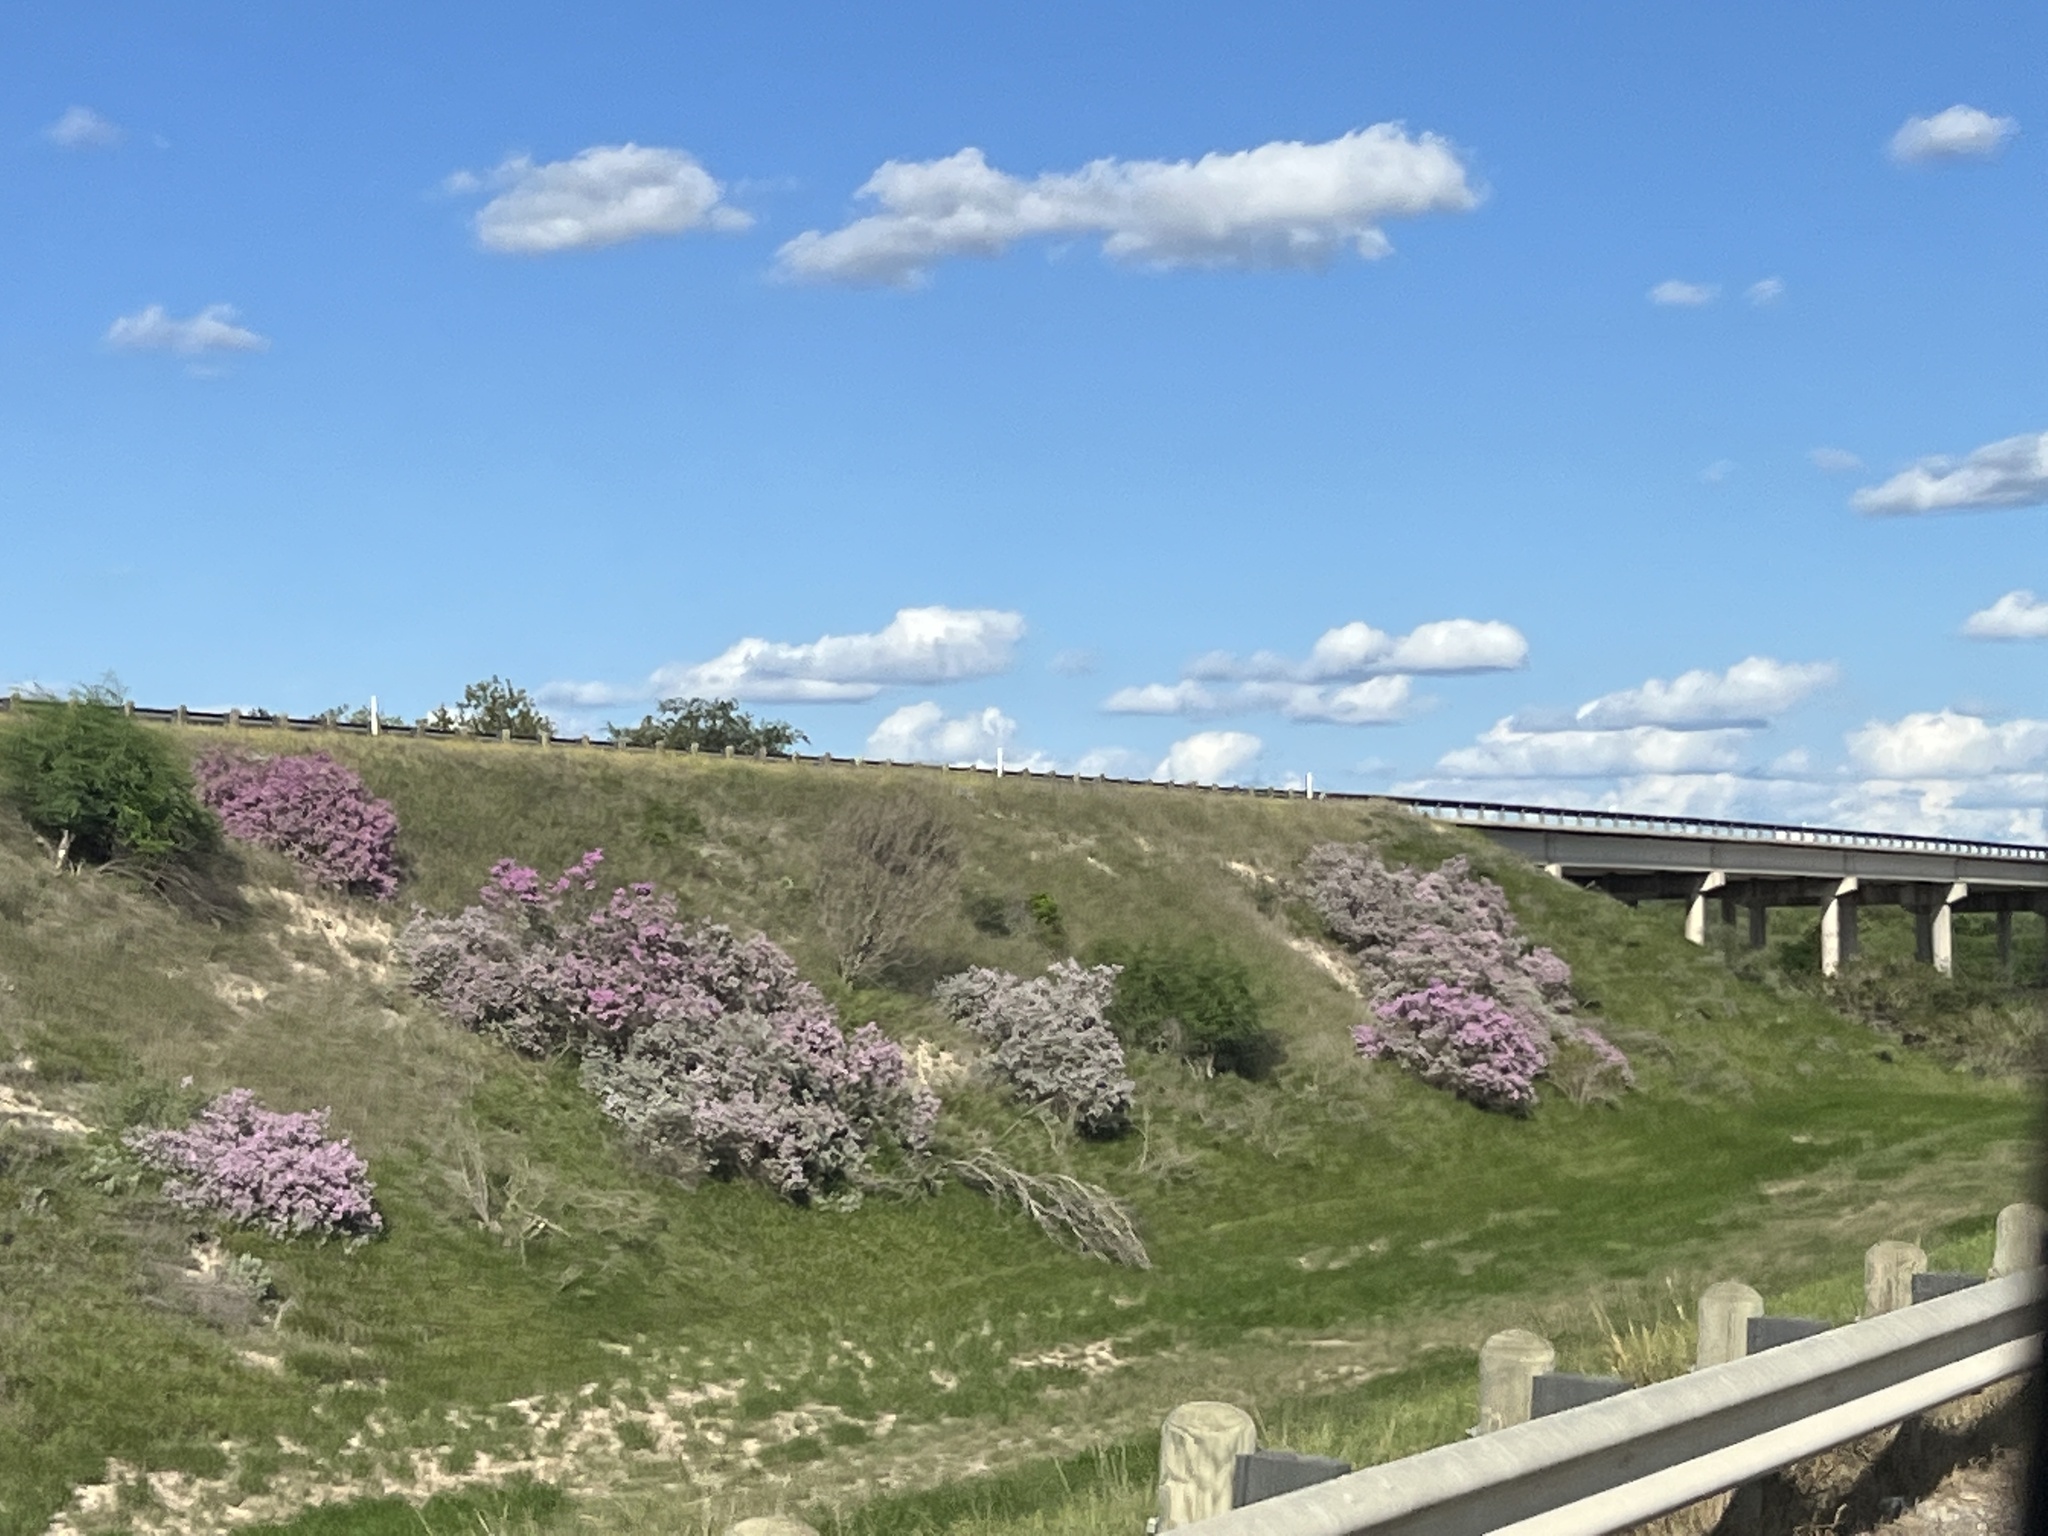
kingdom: Plantae
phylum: Tracheophyta
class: Magnoliopsida
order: Lamiales
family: Scrophulariaceae
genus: Leucophyllum
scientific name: Leucophyllum frutescens
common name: Texas silverleaf
